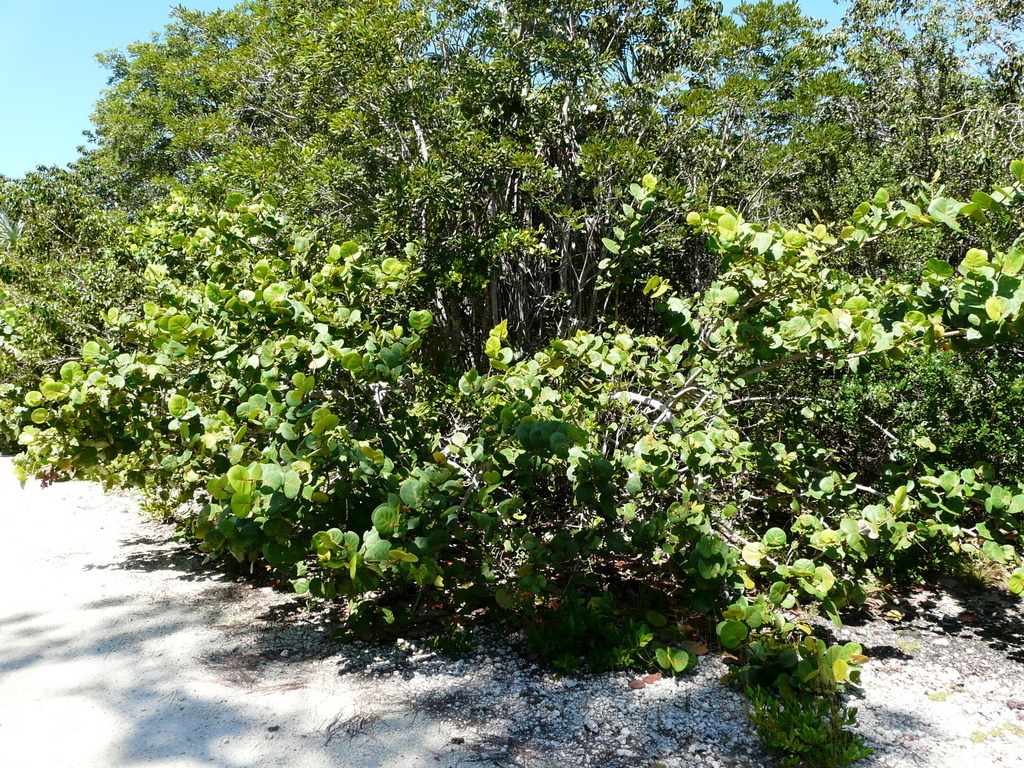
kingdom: Plantae
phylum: Tracheophyta
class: Magnoliopsida
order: Caryophyllales
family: Polygonaceae
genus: Coccoloba
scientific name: Coccoloba uvifera
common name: Seagrape
